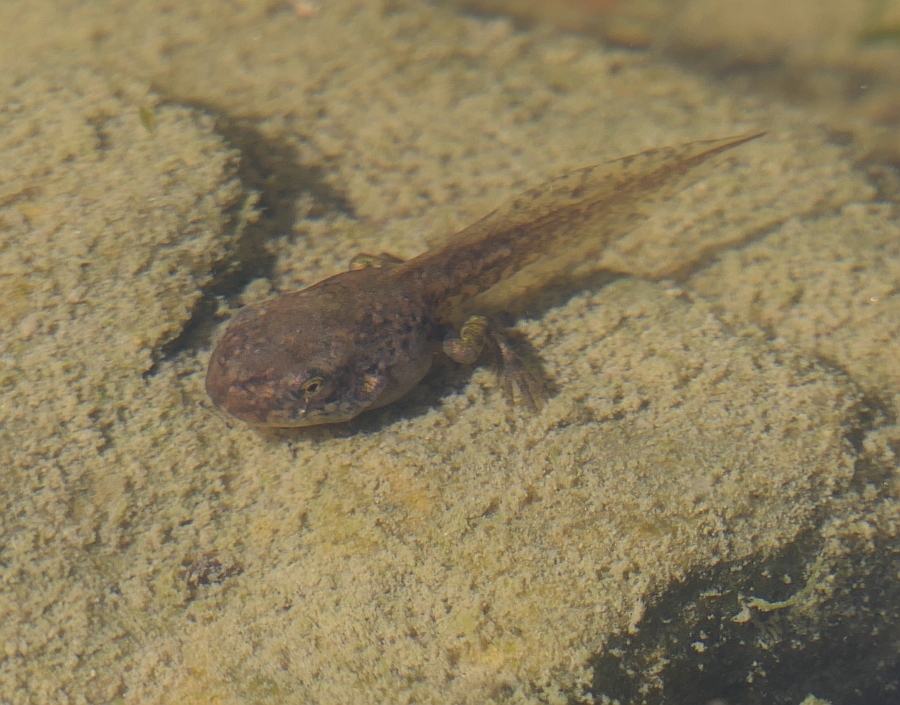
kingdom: Animalia
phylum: Chordata
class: Amphibia
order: Anura
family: Hylidae
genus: Dryophytes
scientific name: Dryophytes versicolor
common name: Gray treefrog
